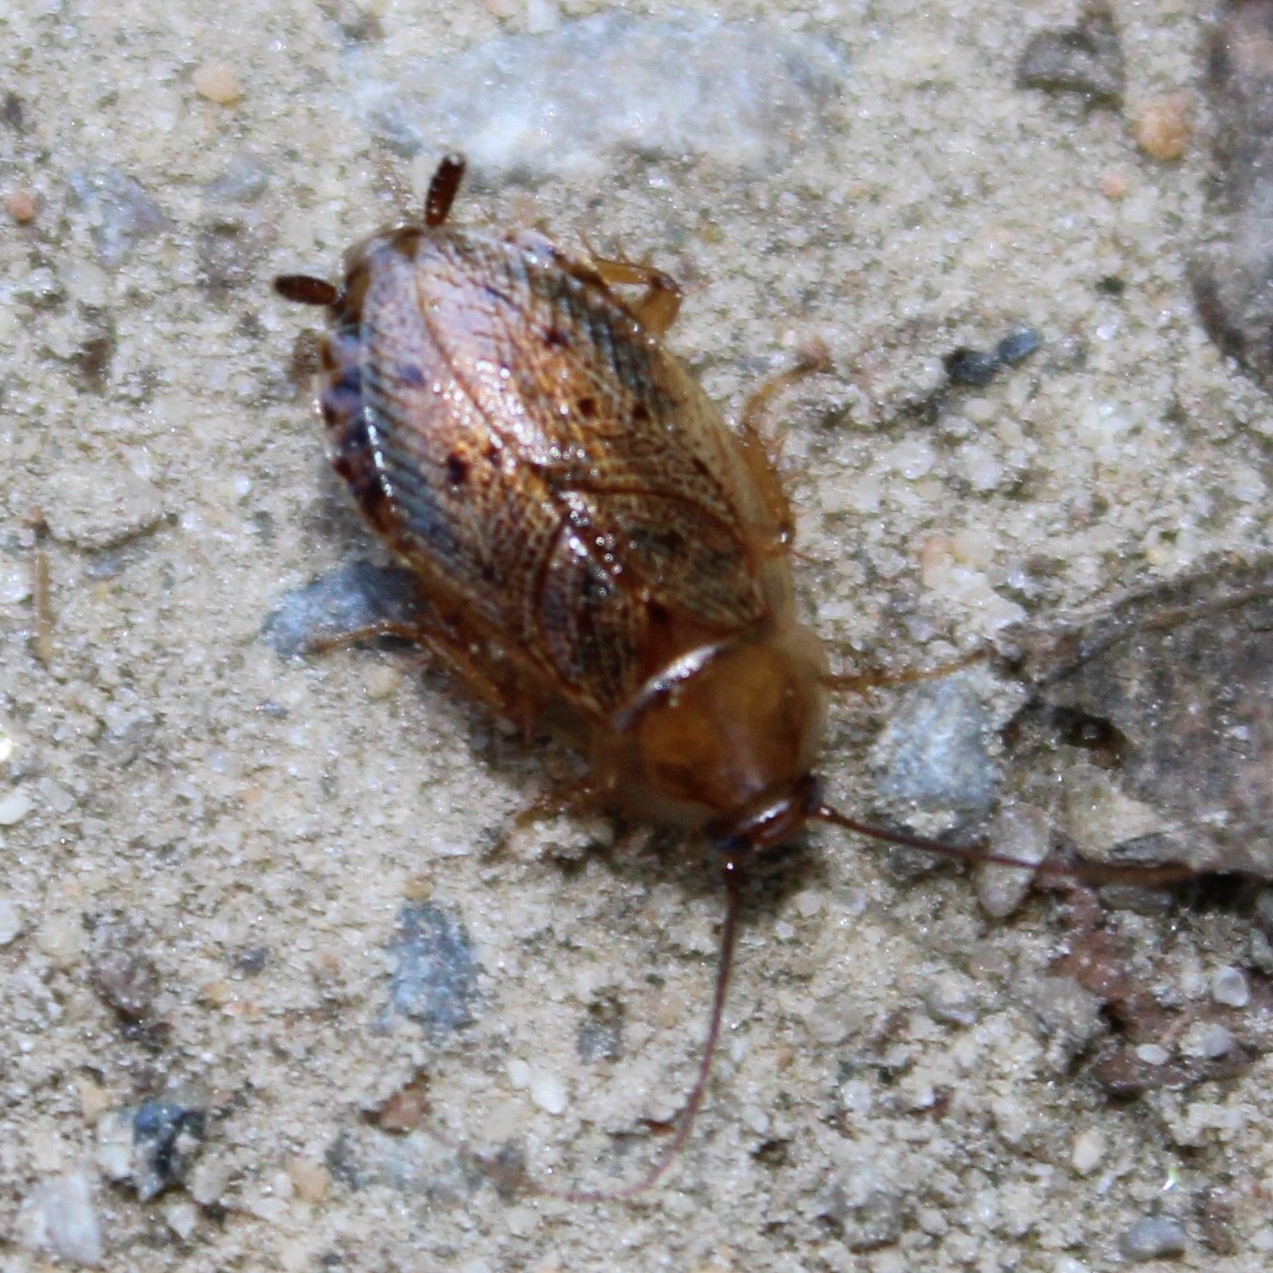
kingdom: Animalia
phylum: Arthropoda
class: Insecta
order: Blattodea
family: Ectobiidae
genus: Ectobius
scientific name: Ectobius lapponicus
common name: Dusky cockroach
